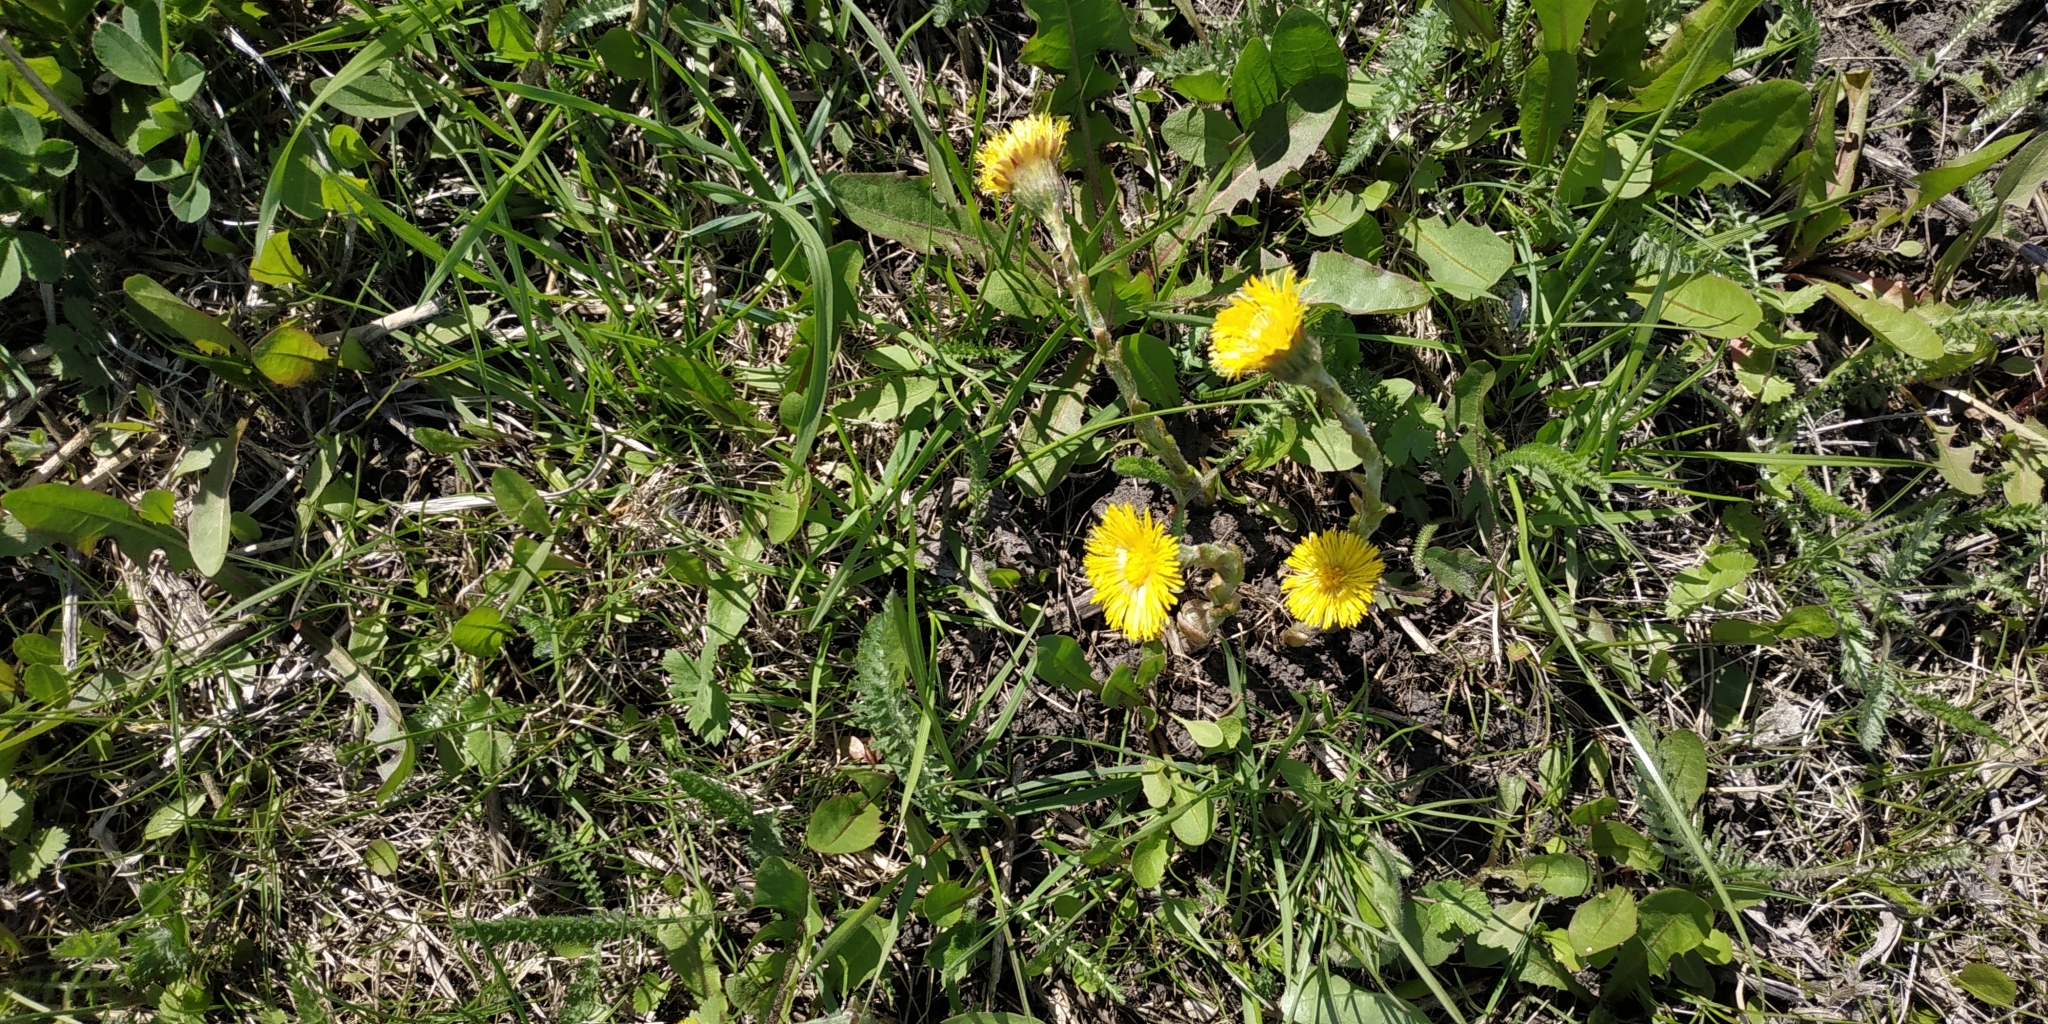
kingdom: Plantae
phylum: Tracheophyta
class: Magnoliopsida
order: Asterales
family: Asteraceae
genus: Tussilago
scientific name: Tussilago farfara
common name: Coltsfoot
